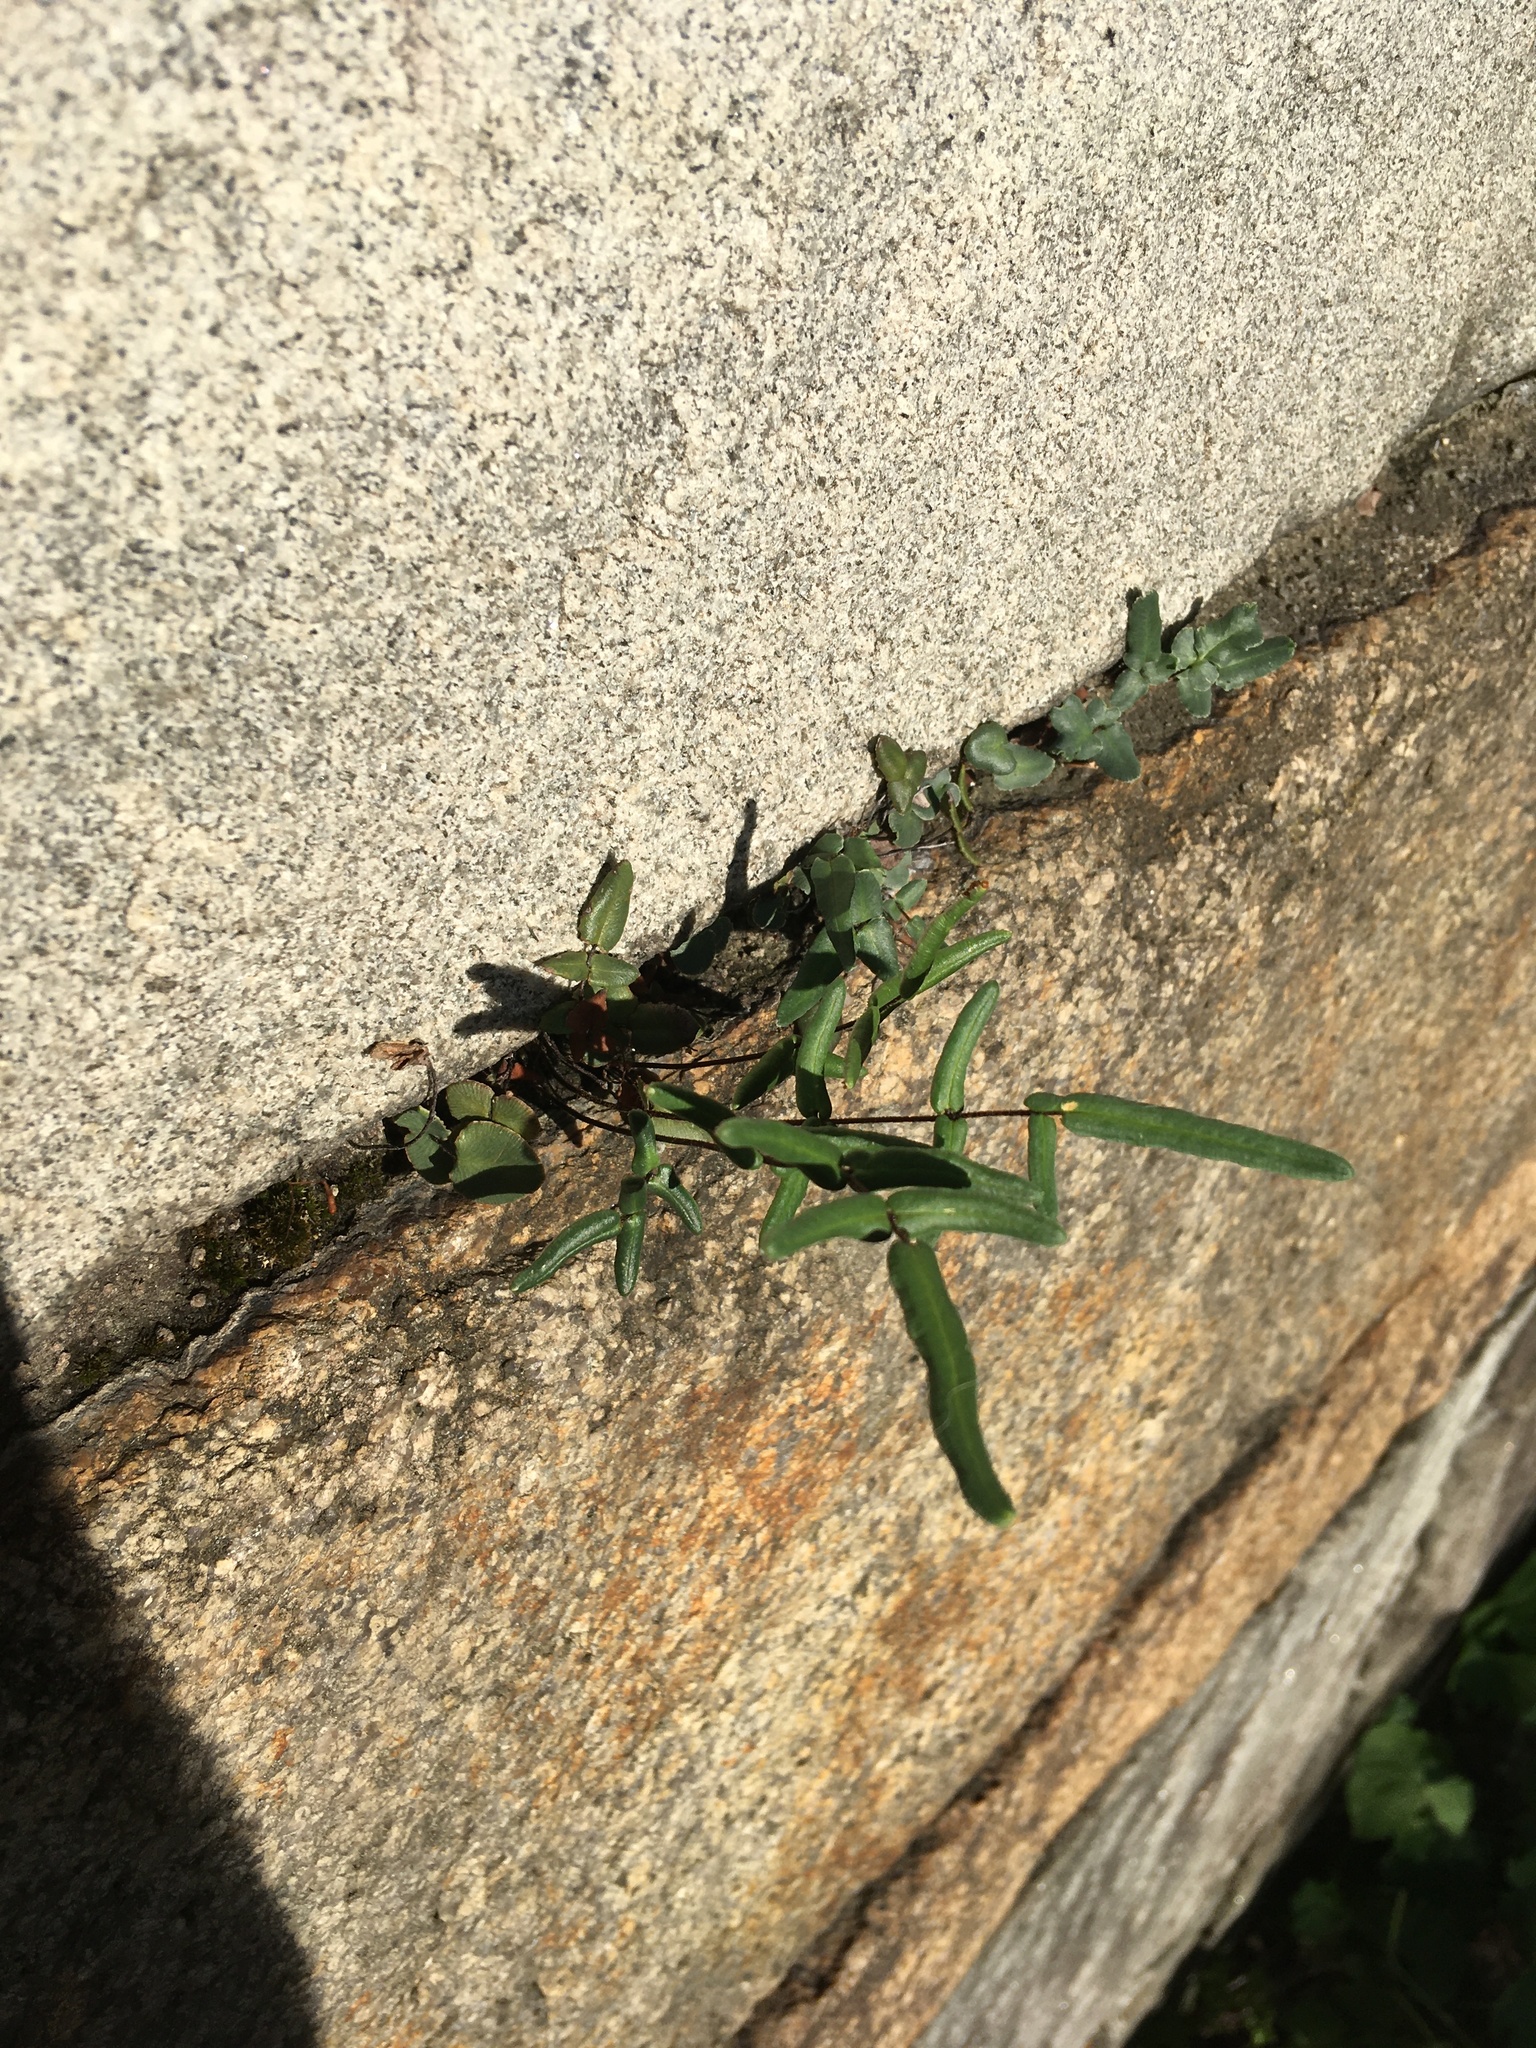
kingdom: Plantae
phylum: Tracheophyta
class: Polypodiopsida
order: Polypodiales
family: Pteridaceae
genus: Pellaea
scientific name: Pellaea atropurpurea
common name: Hairy cliffbrake
